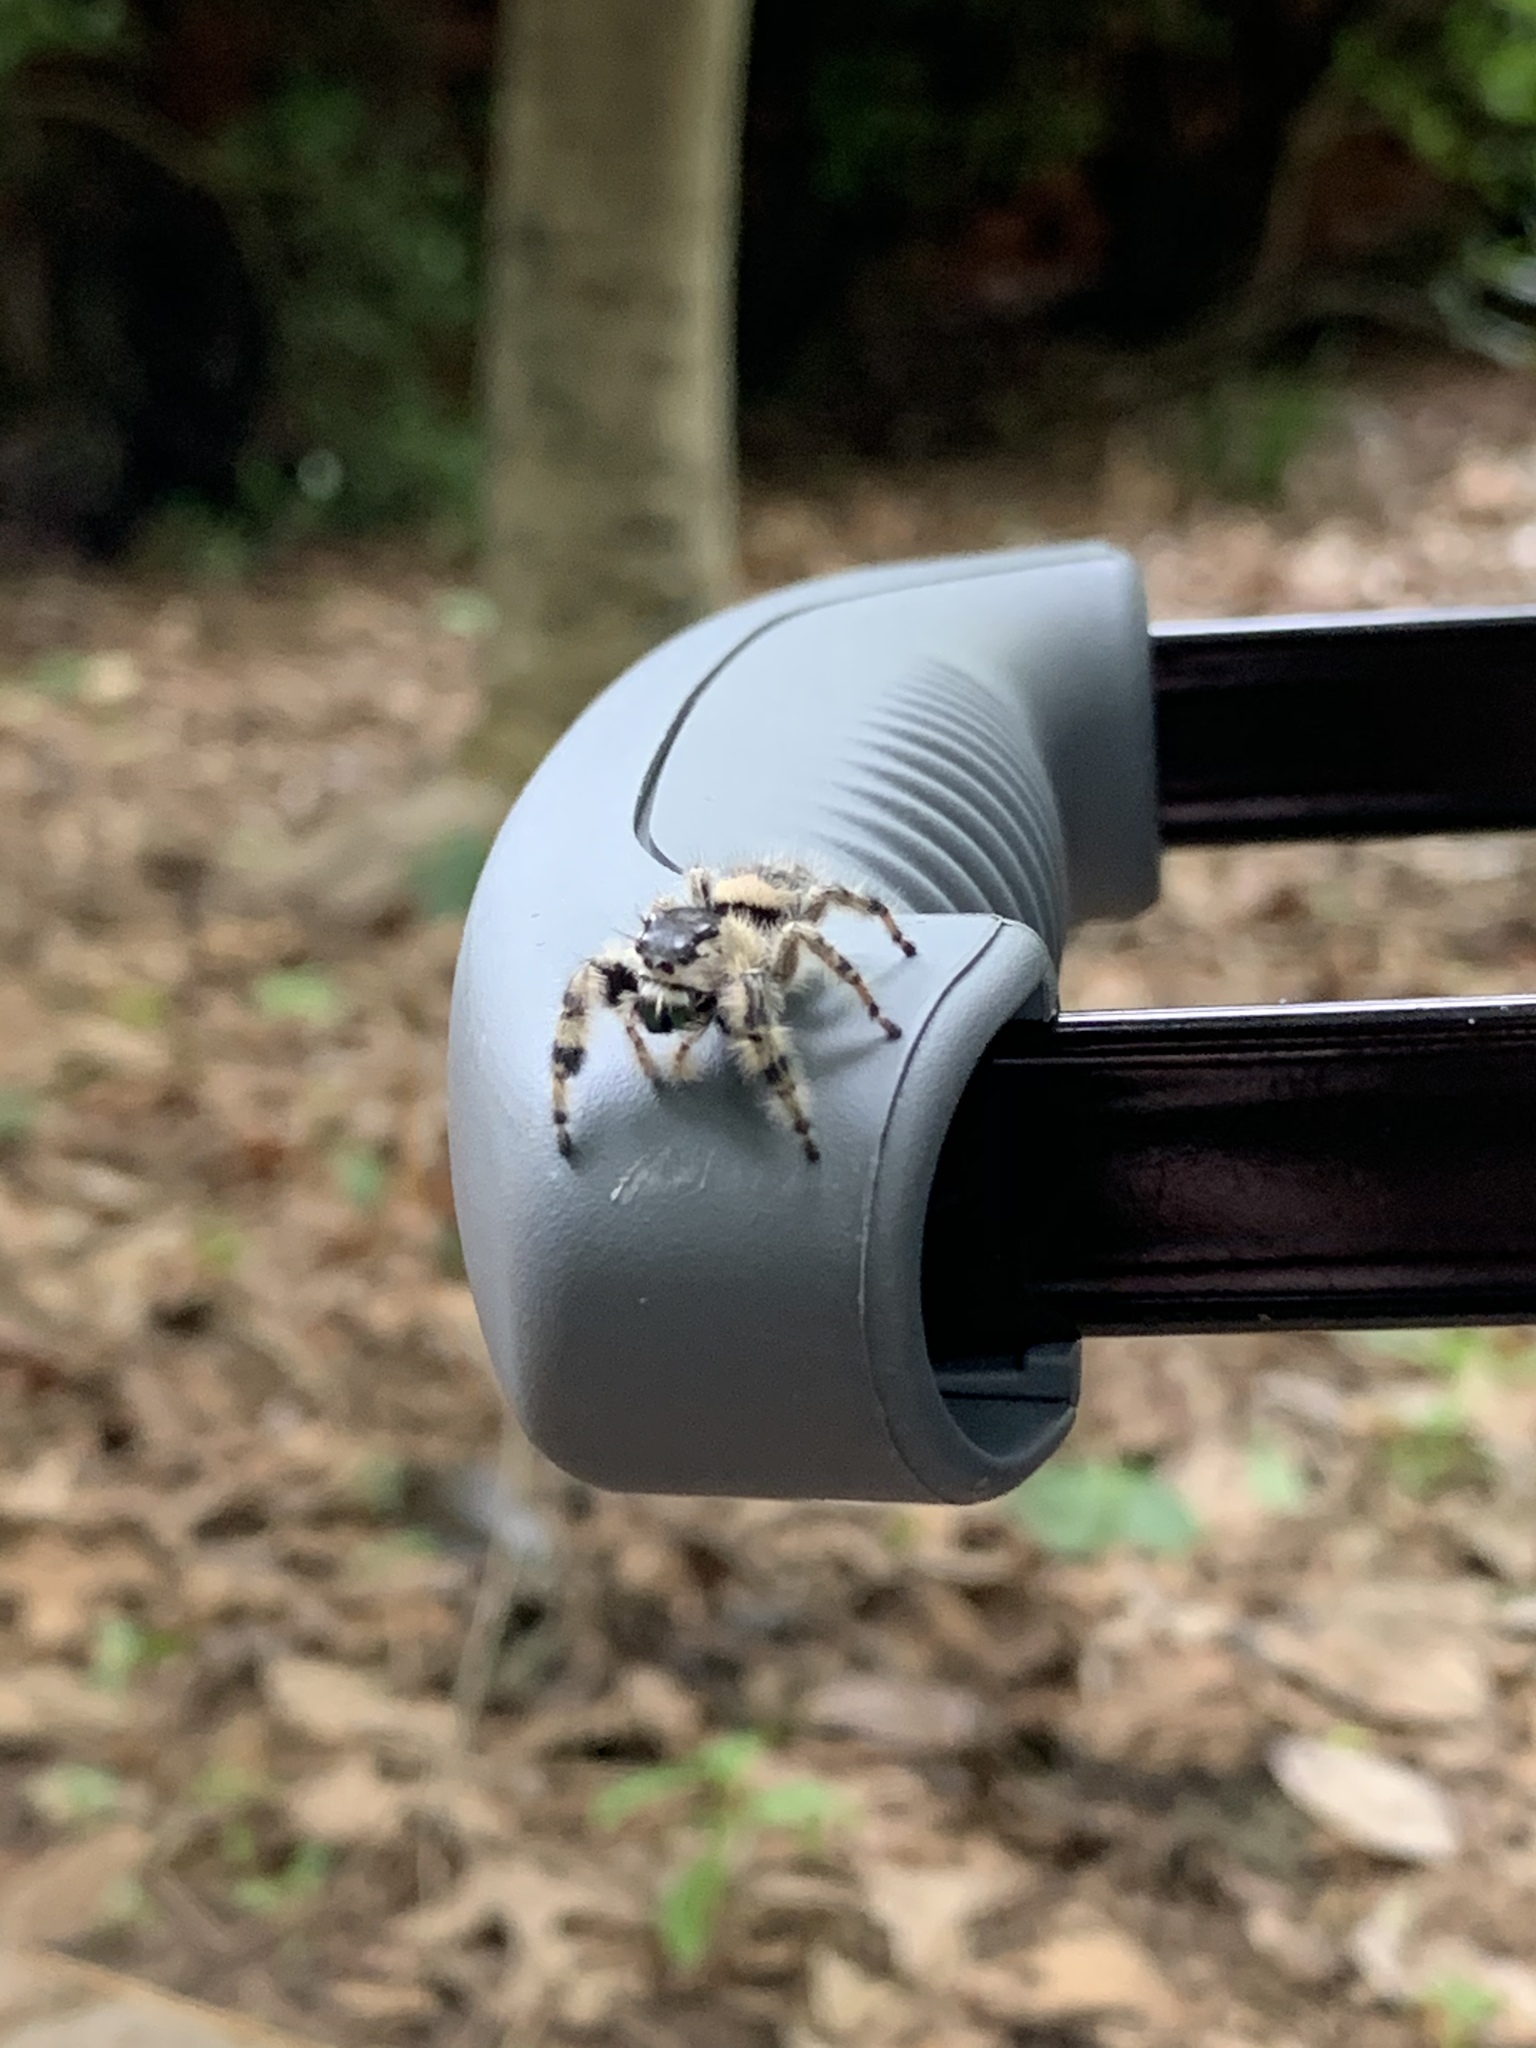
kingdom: Animalia
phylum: Arthropoda
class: Arachnida
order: Araneae
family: Salticidae
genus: Phidippus
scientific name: Phidippus otiosus
